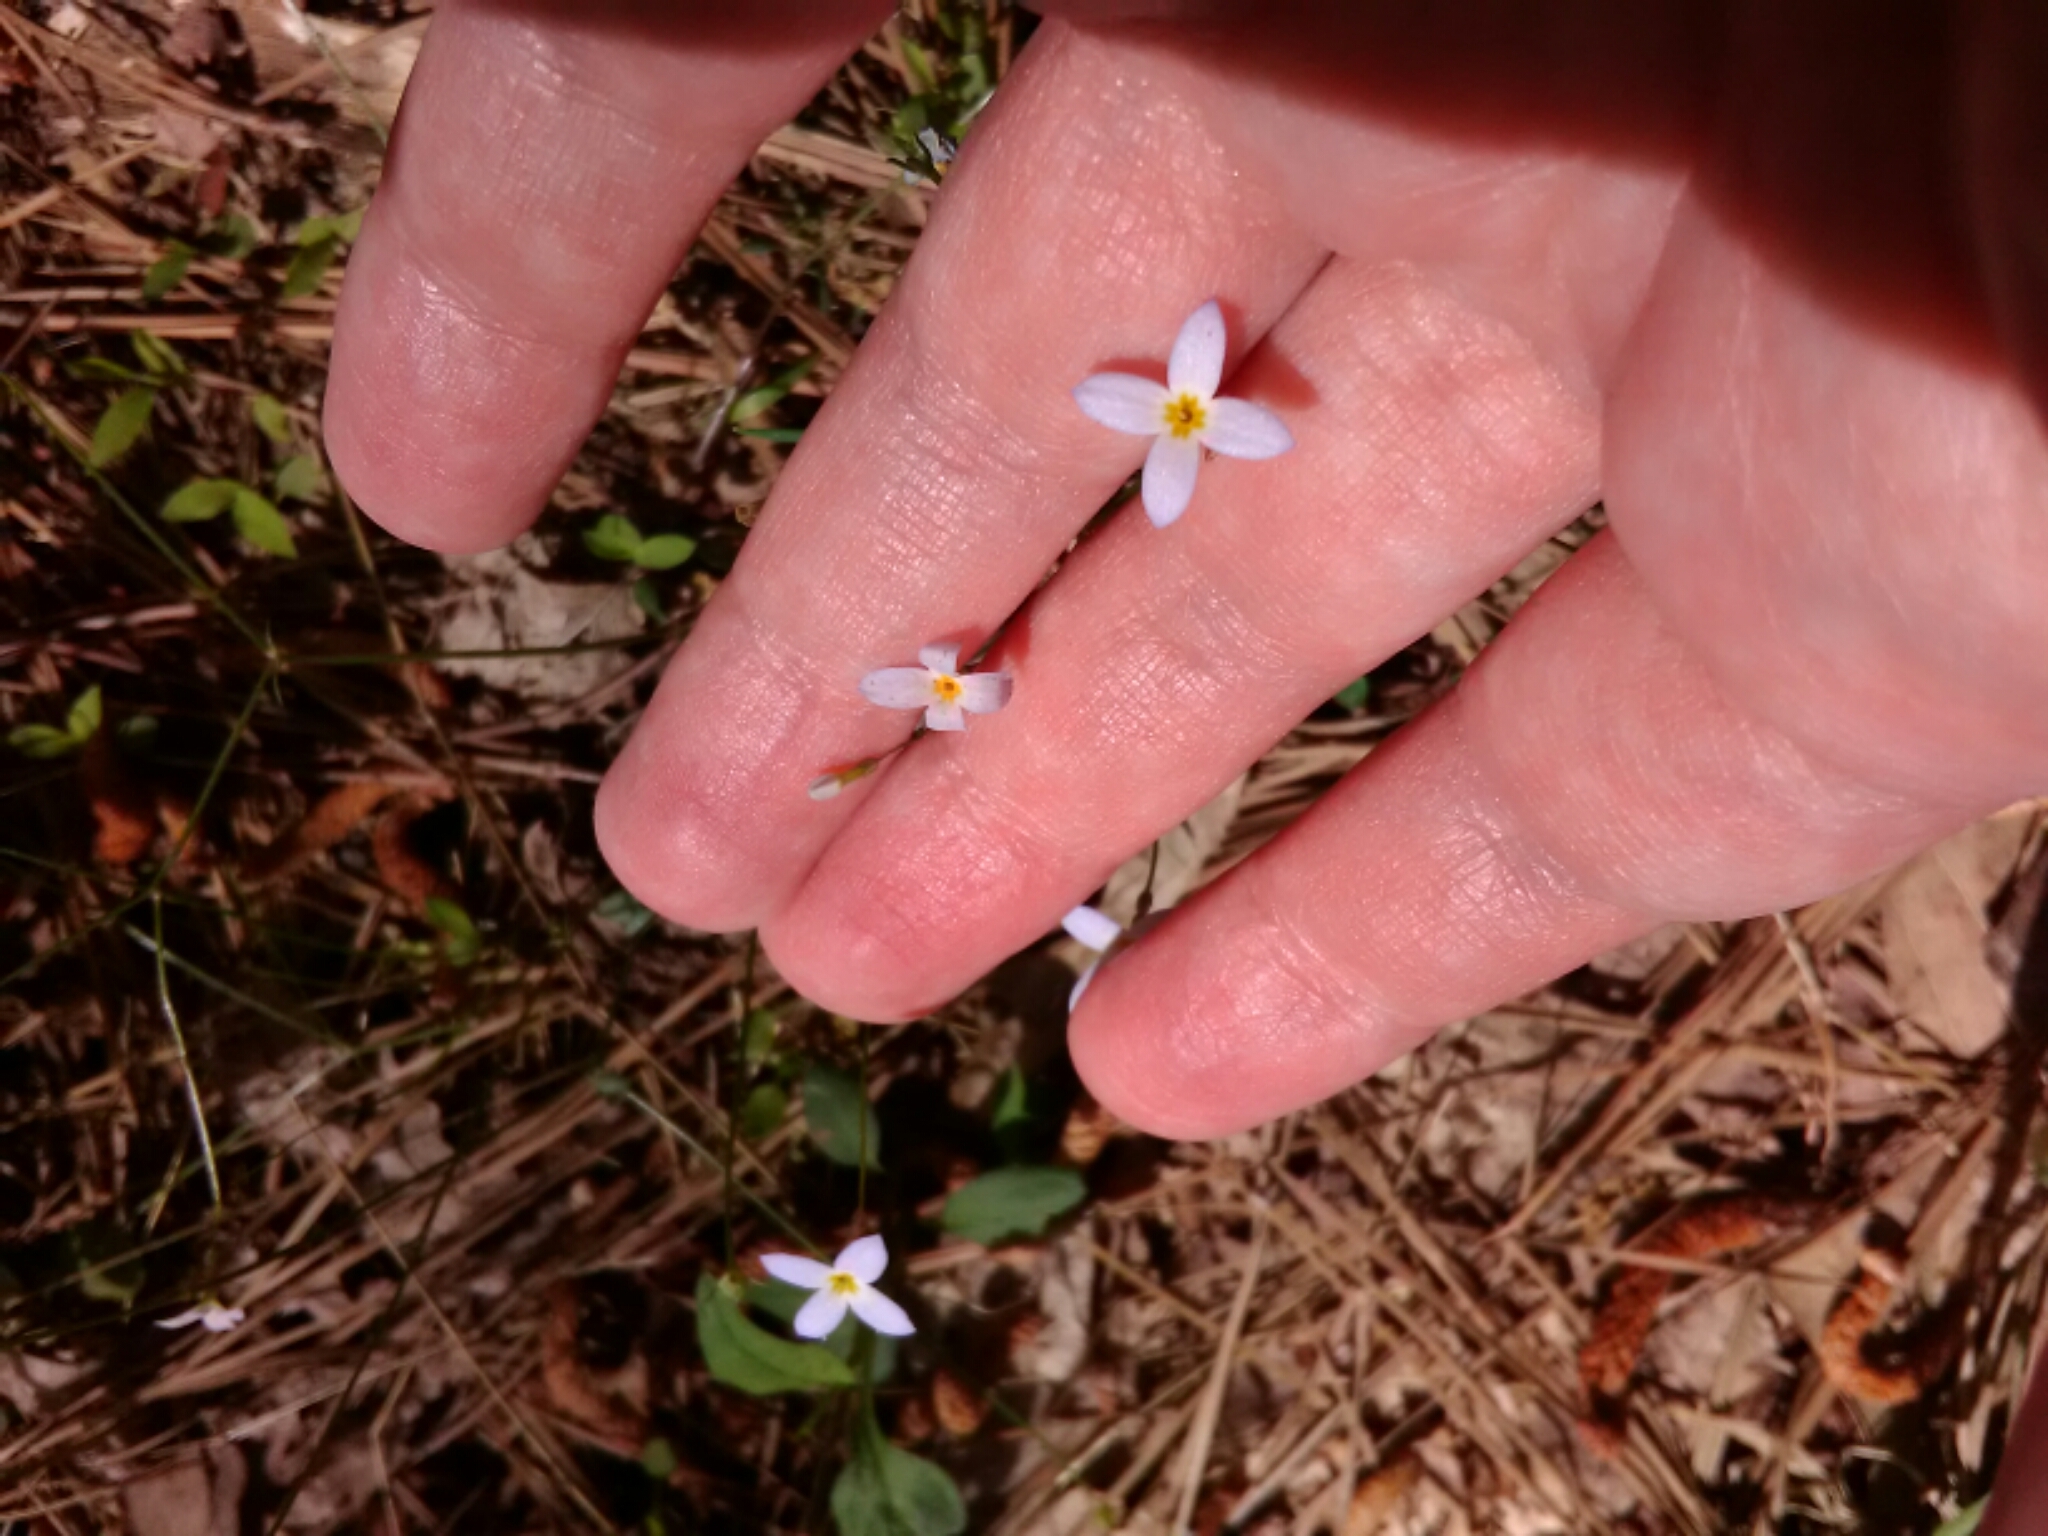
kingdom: Plantae
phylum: Tracheophyta
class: Magnoliopsida
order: Gentianales
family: Rubiaceae
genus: Houstonia
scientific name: Houstonia caerulea
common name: Bluets
